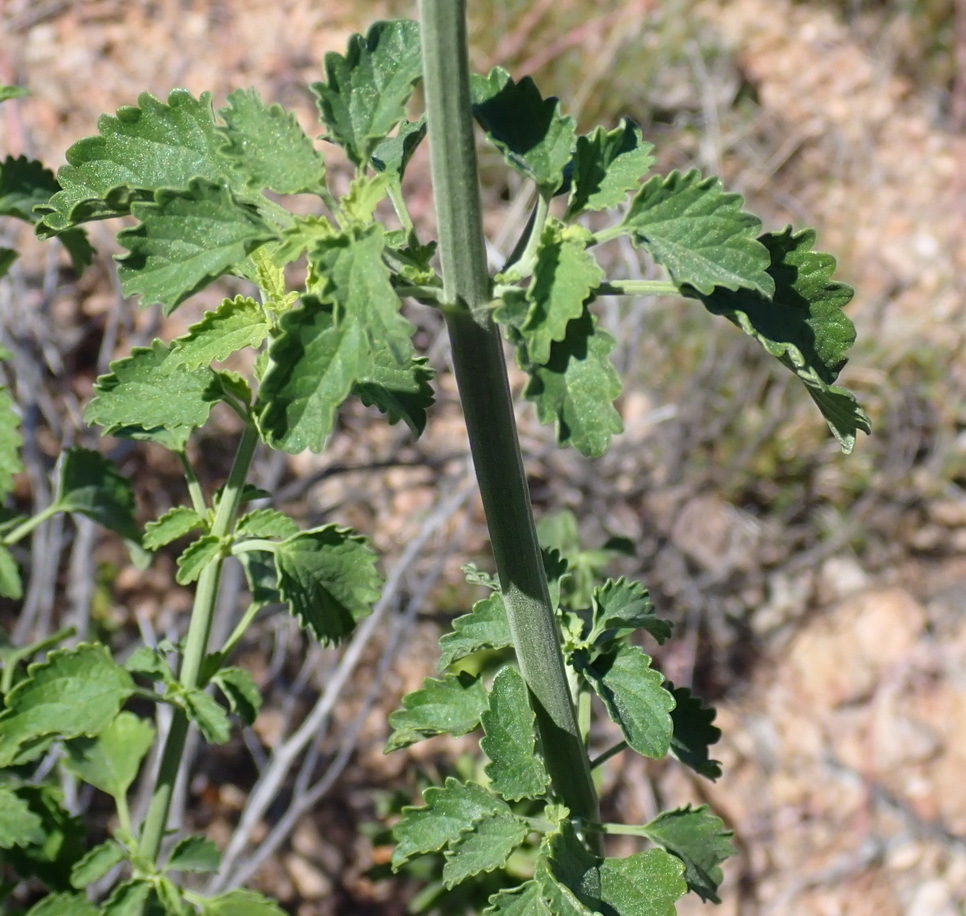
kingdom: Plantae
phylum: Tracheophyta
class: Magnoliopsida
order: Lamiales
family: Lamiaceae
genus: Leonotis
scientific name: Leonotis ocymifolia
